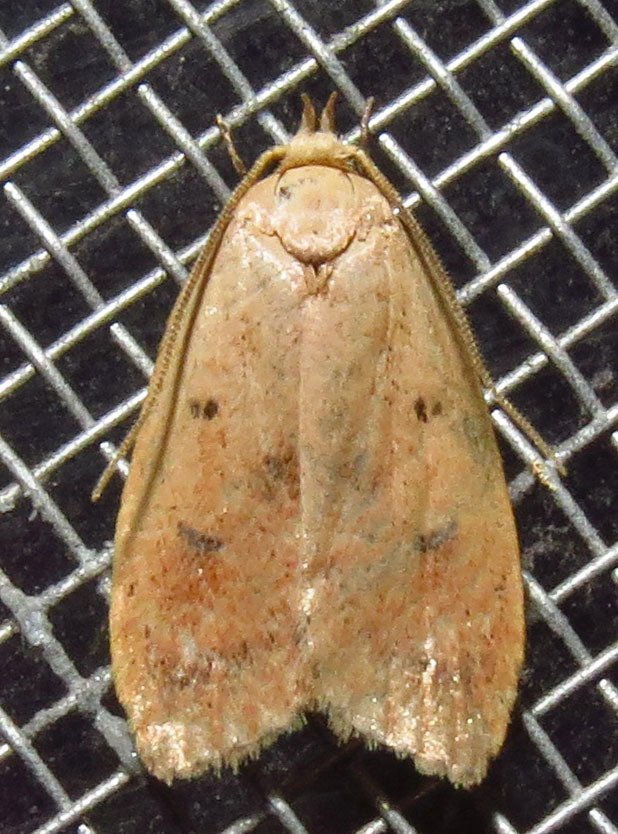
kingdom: Animalia
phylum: Arthropoda
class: Insecta
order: Lepidoptera
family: Peleopodidae
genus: Machimia
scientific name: Machimia tentoriferella
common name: Gold-striped leaftier moth
